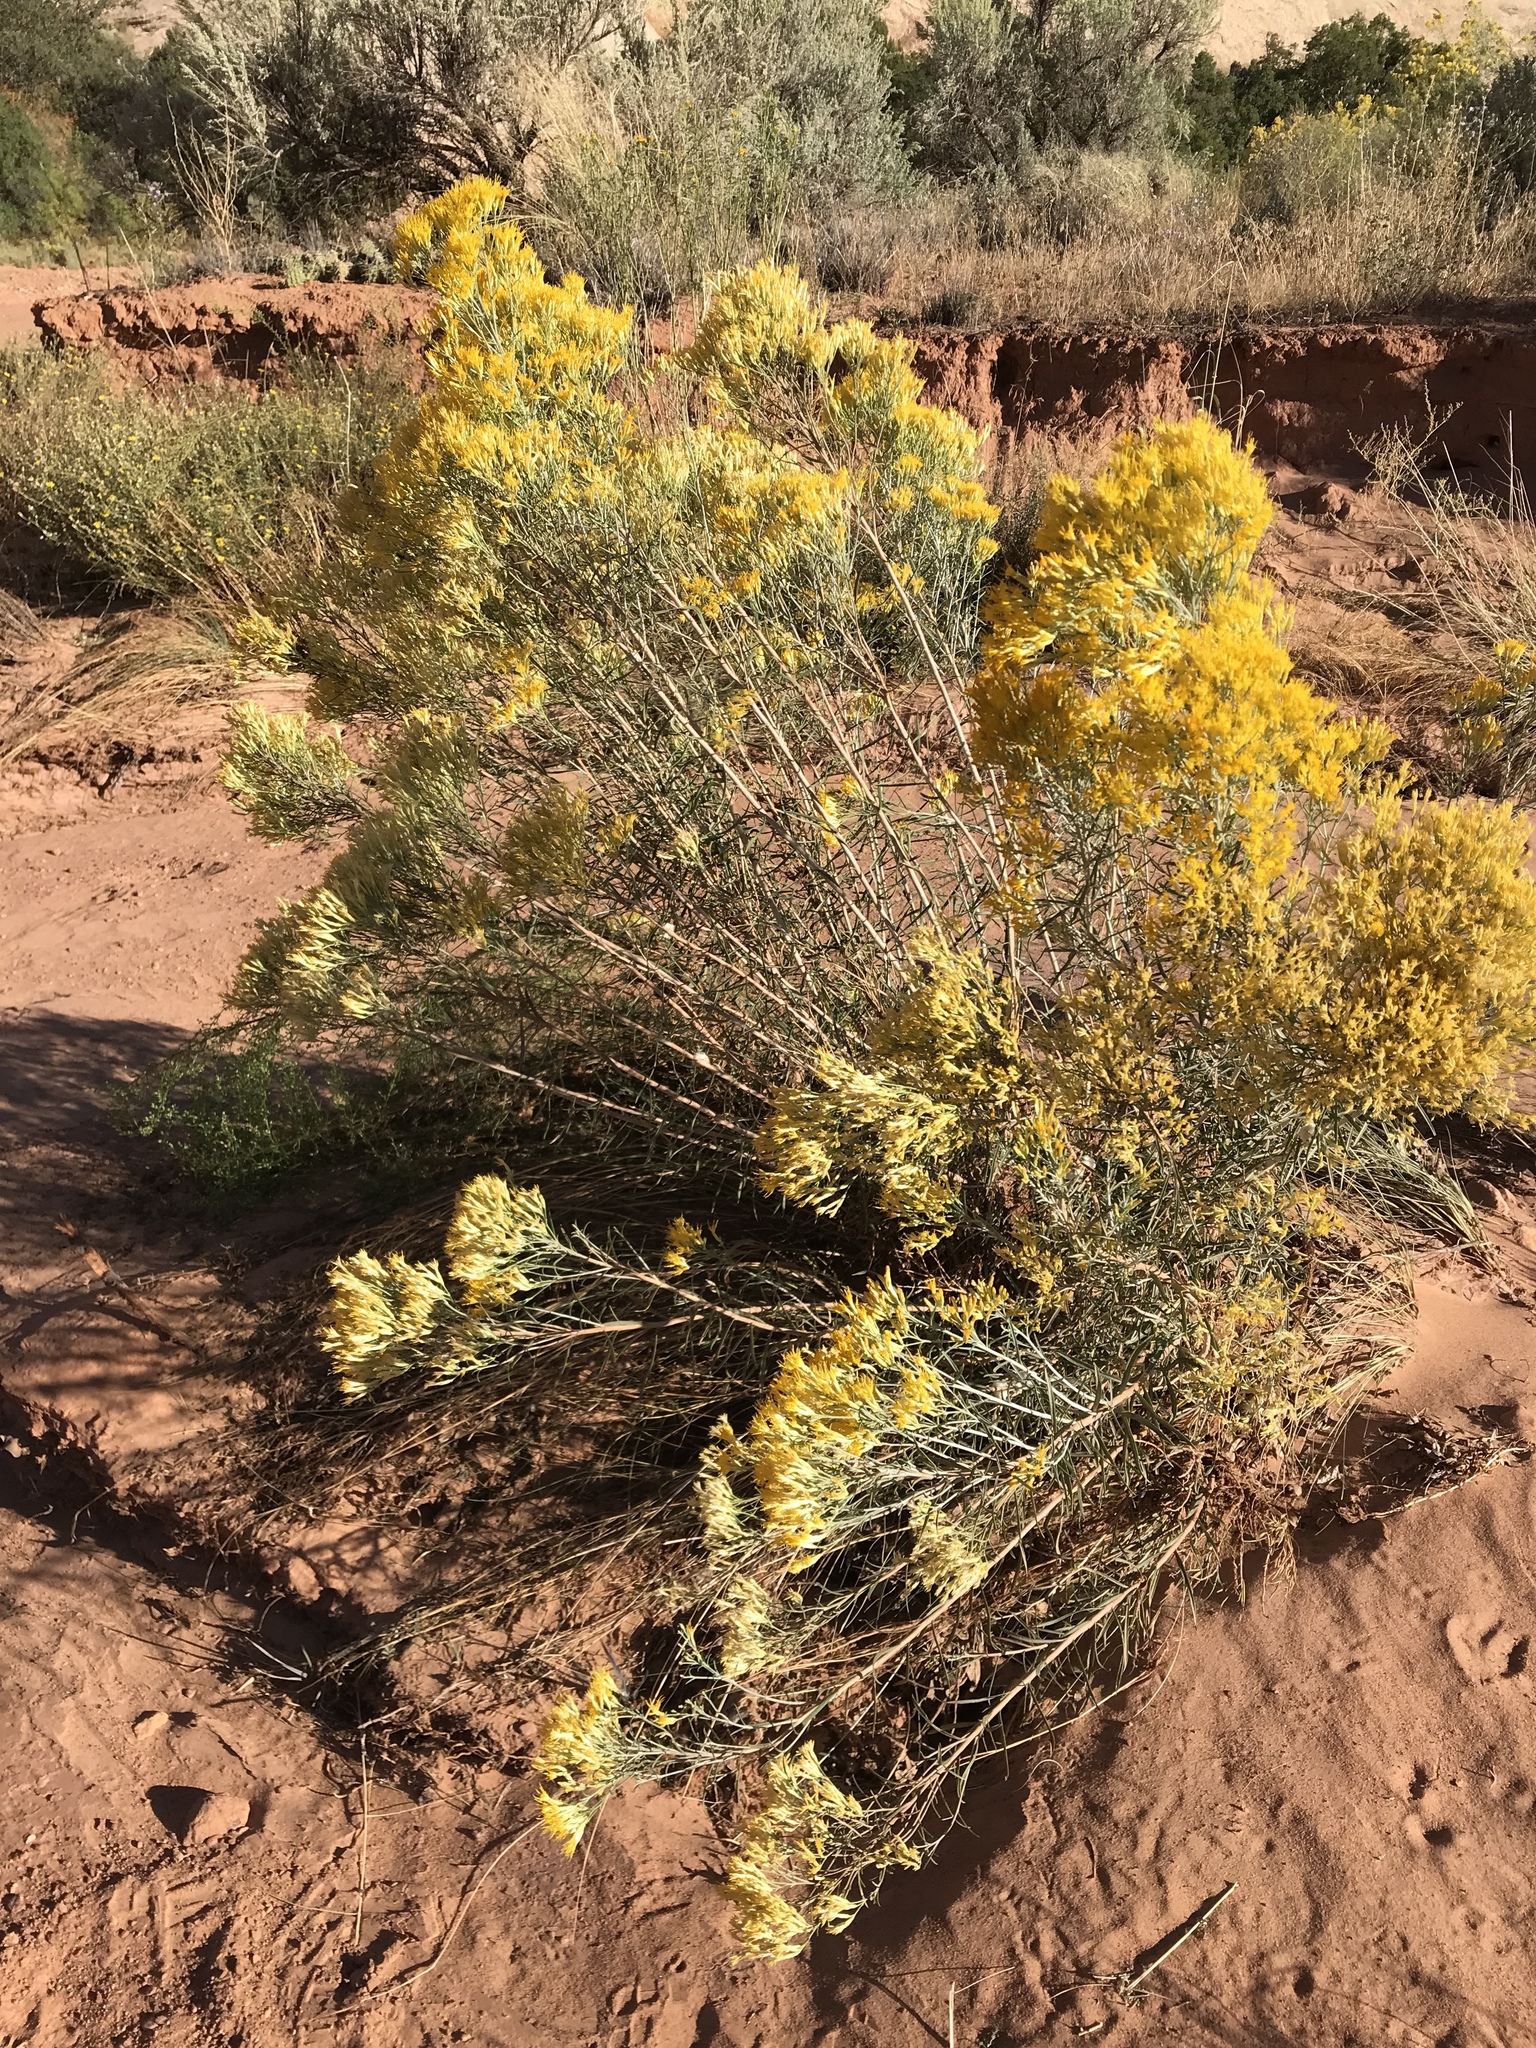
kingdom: Plantae
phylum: Tracheophyta
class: Magnoliopsida
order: Asterales
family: Asteraceae
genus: Ericameria
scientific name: Ericameria nauseosa
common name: Rubber rabbitbrush
